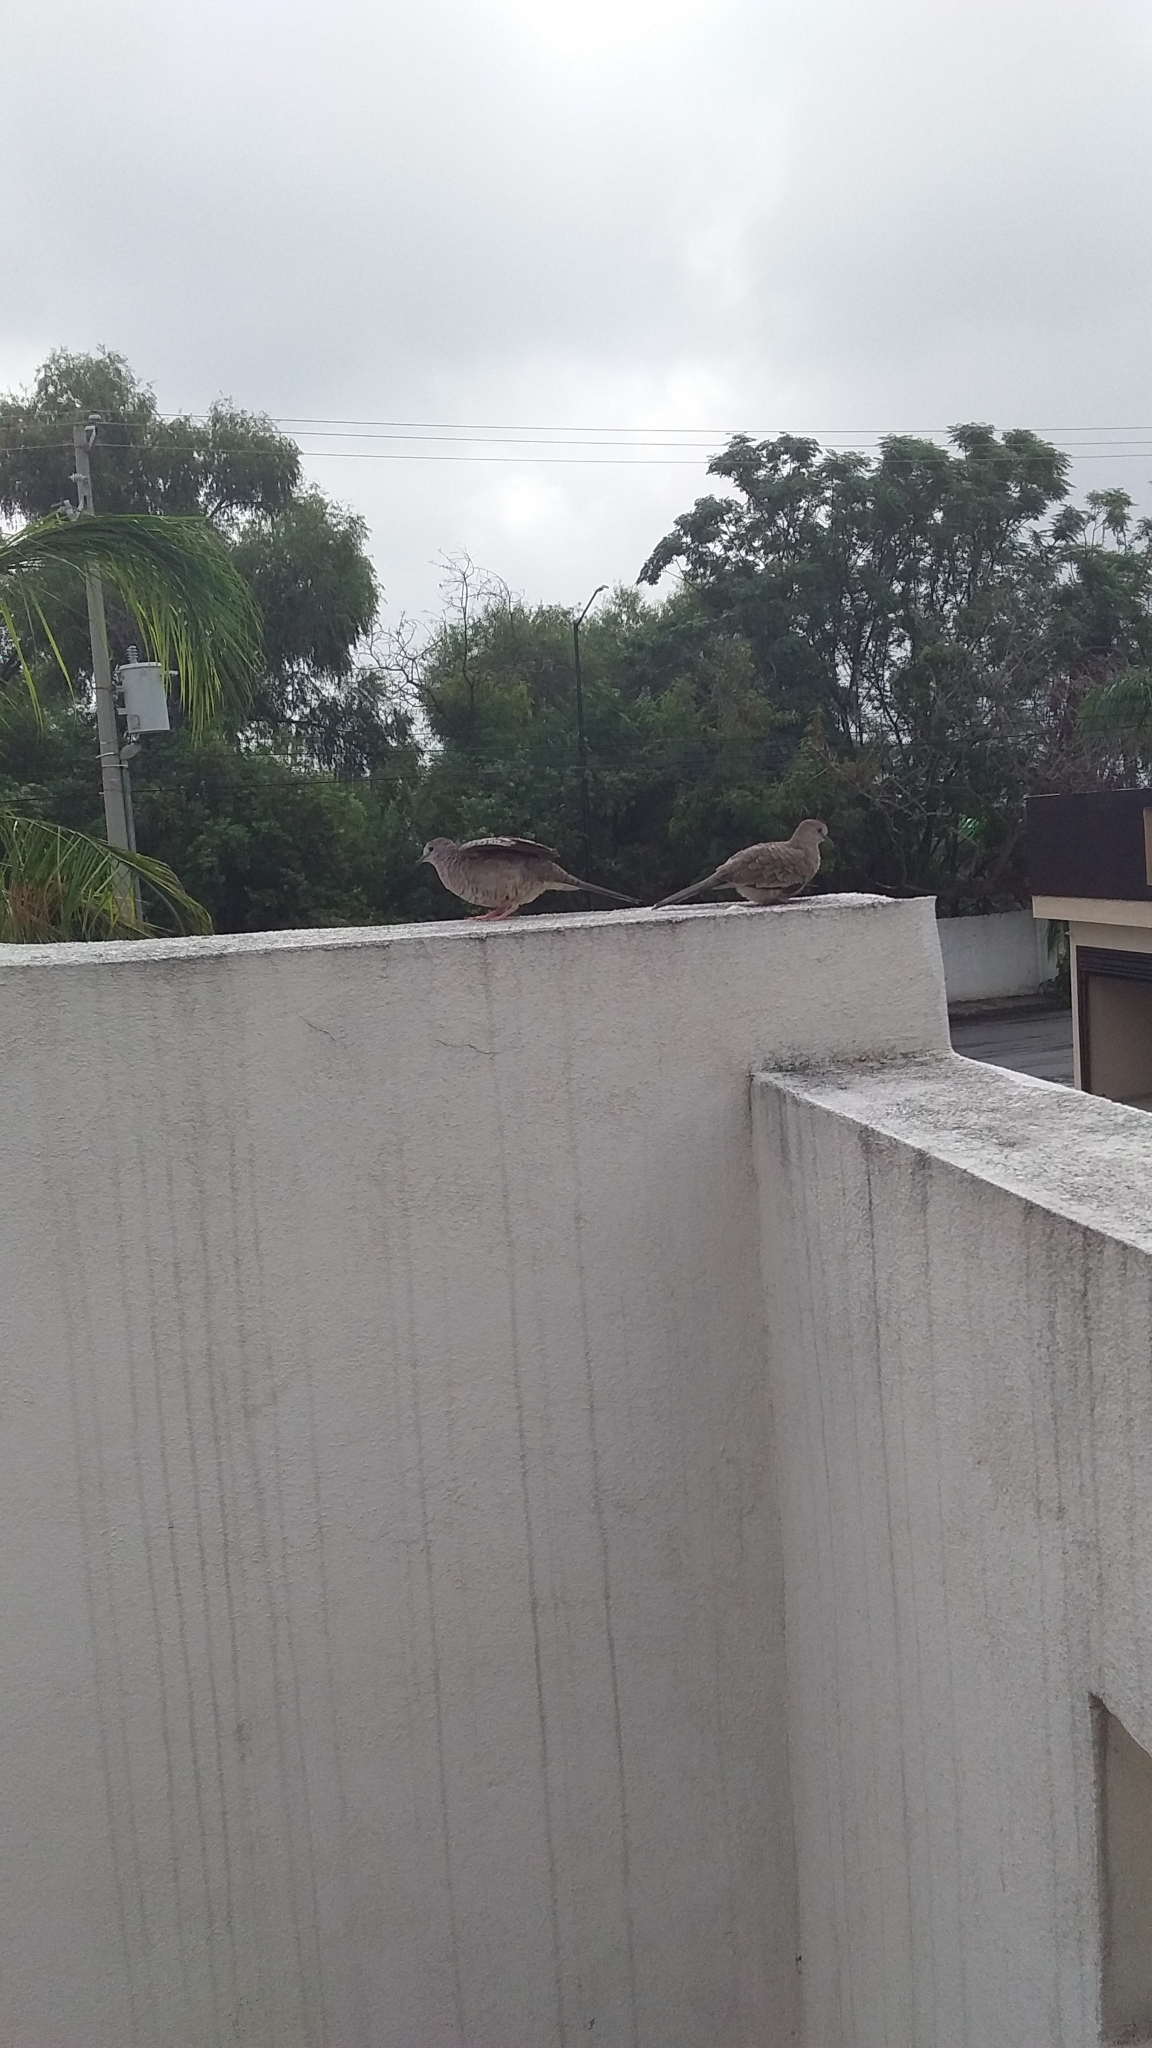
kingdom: Animalia
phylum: Chordata
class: Aves
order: Columbiformes
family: Columbidae
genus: Columbina
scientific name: Columbina inca
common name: Inca dove
